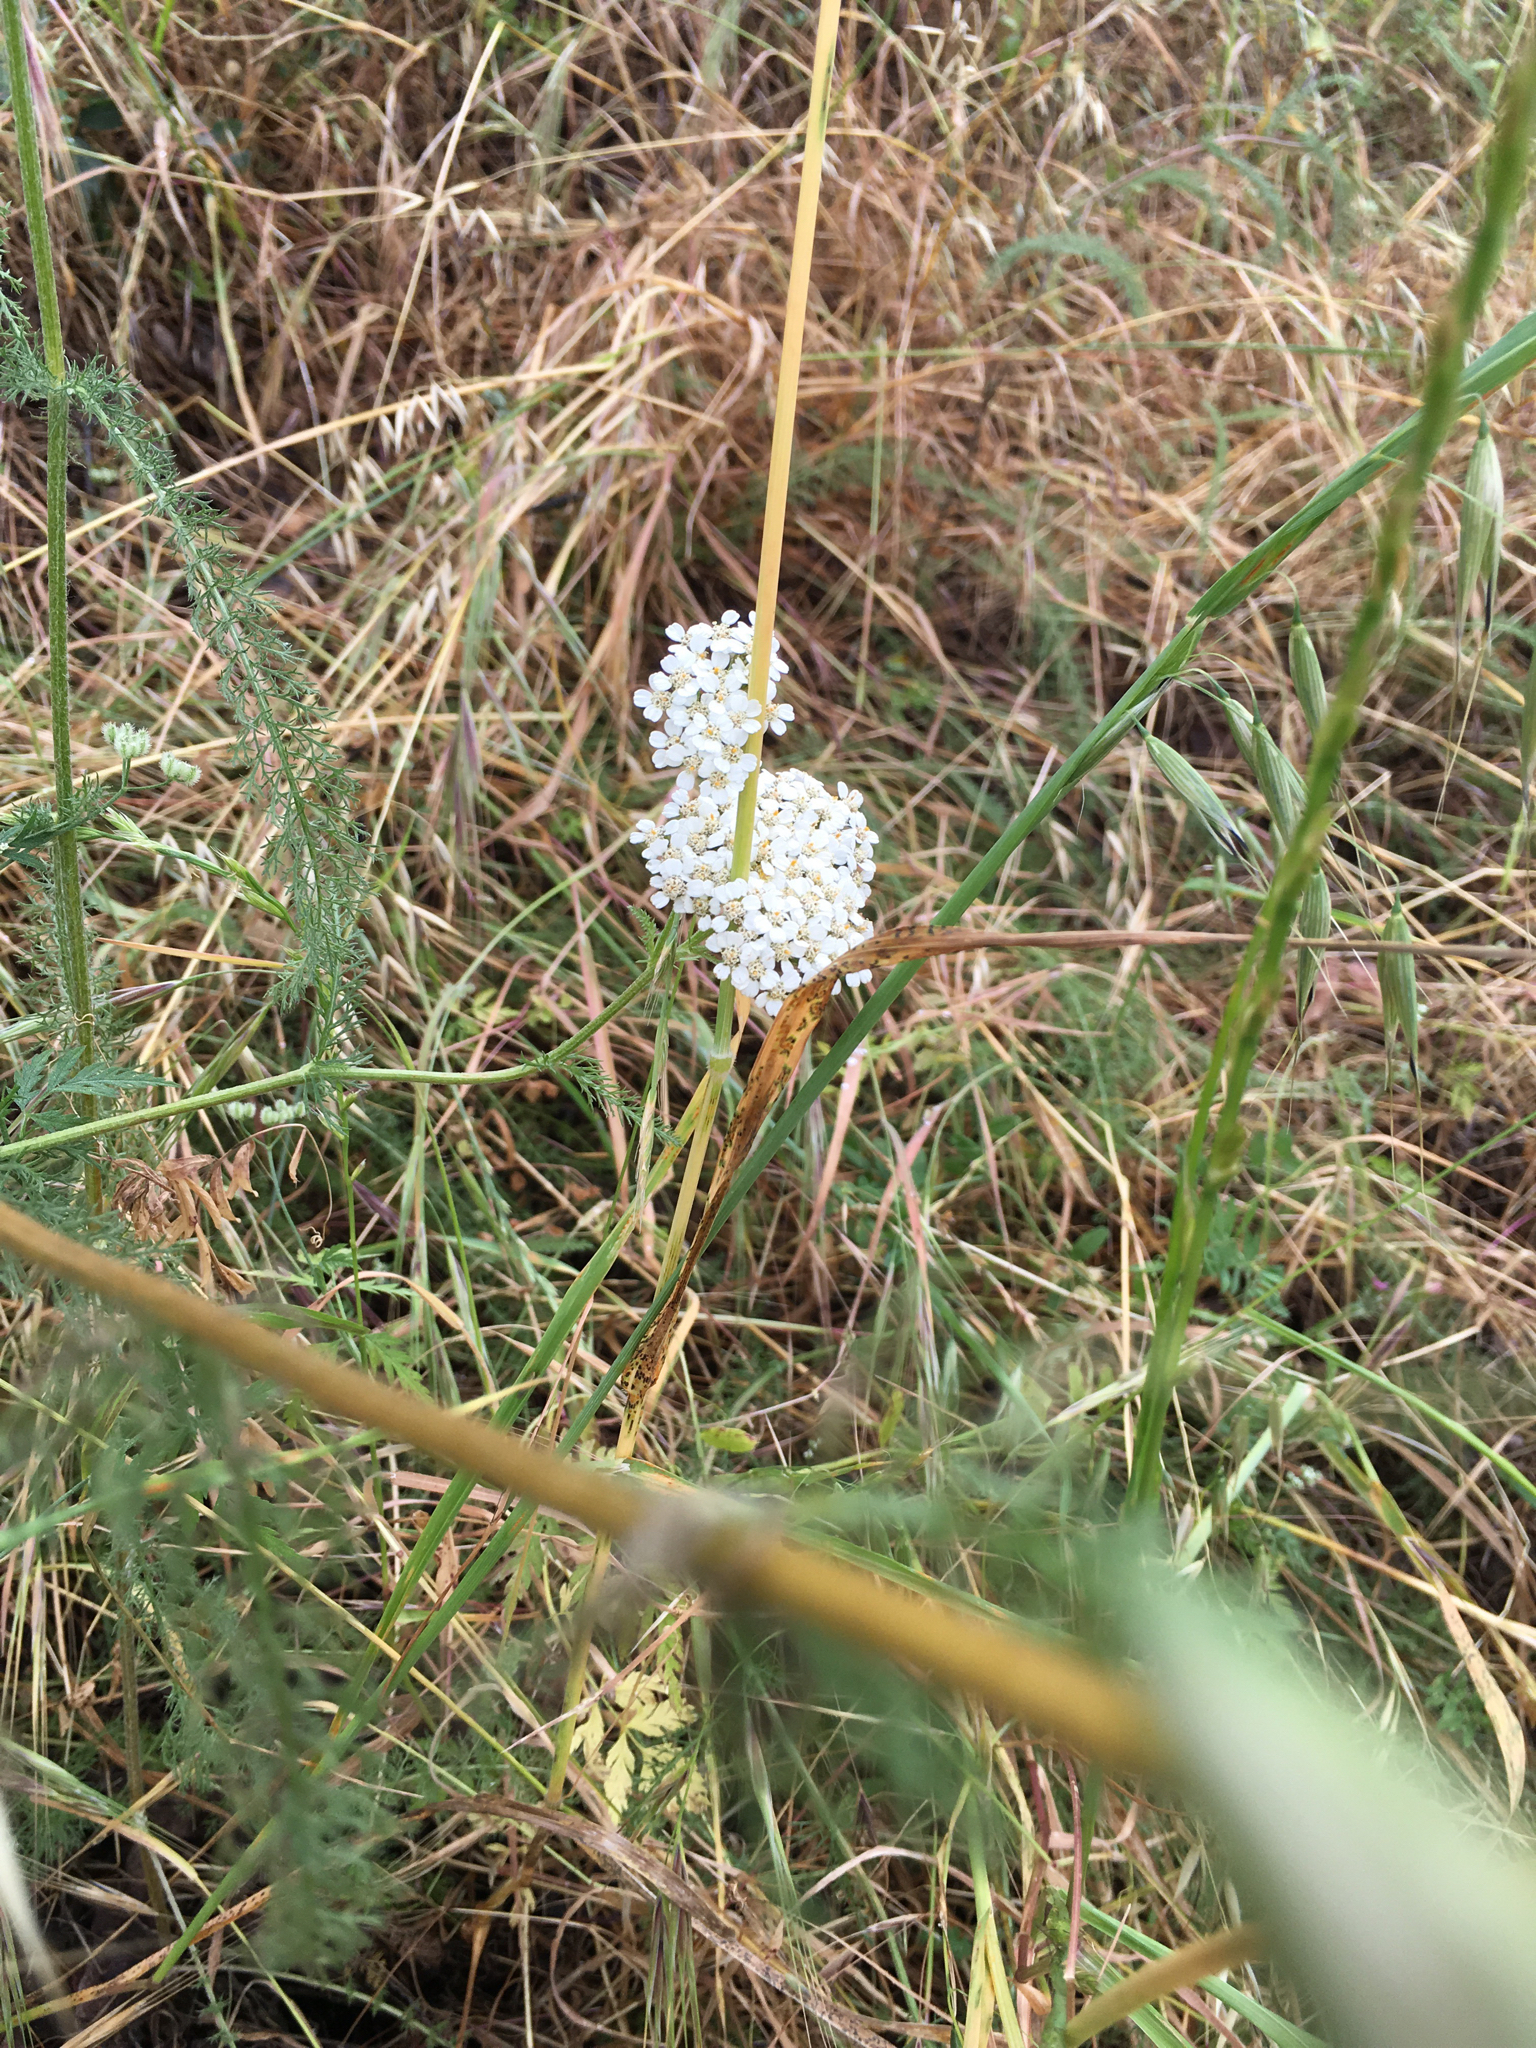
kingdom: Plantae
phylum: Tracheophyta
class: Magnoliopsida
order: Asterales
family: Asteraceae
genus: Achillea
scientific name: Achillea millefolium
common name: Yarrow
